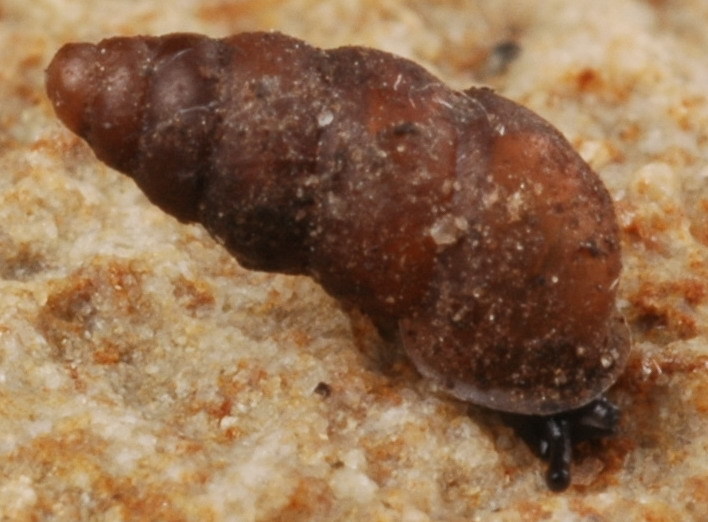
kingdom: Animalia
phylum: Mollusca
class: Gastropoda
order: Stylommatophora
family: Pupillidae
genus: Pupoides
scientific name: Pupoides nitidulus
